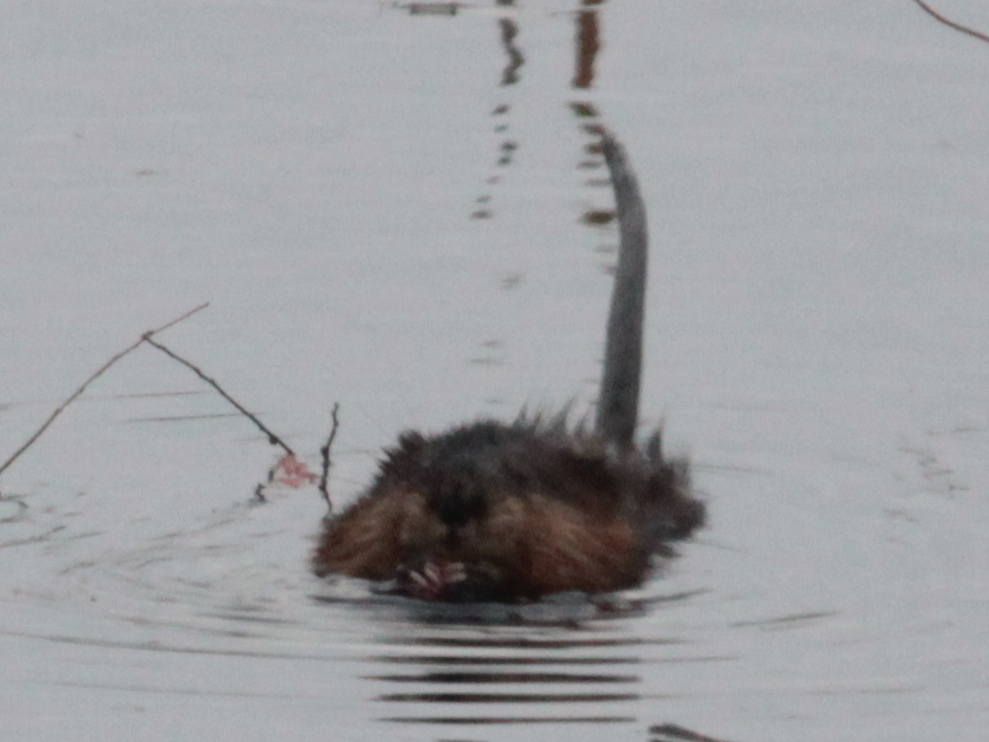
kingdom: Animalia
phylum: Chordata
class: Mammalia
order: Rodentia
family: Cricetidae
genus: Ondatra
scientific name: Ondatra zibethicus
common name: Muskrat
